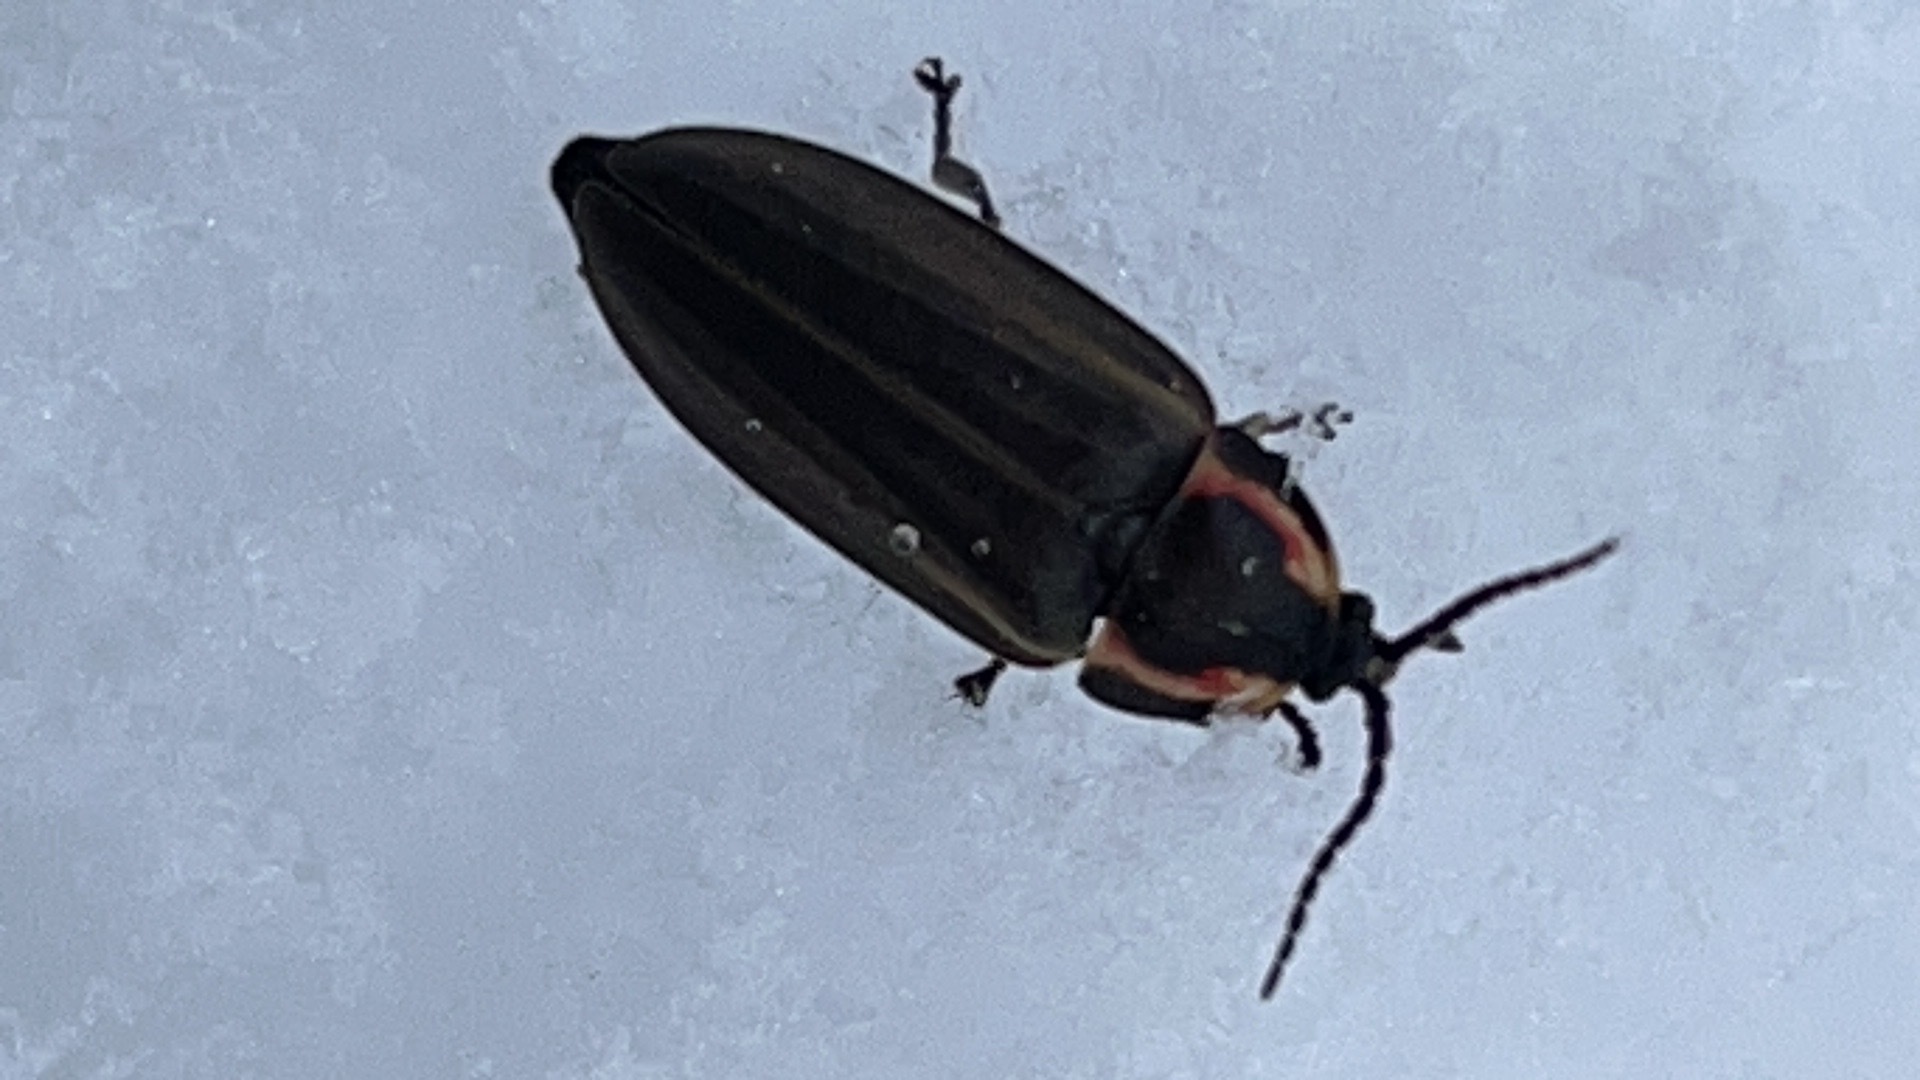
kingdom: Animalia
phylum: Arthropoda
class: Insecta
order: Coleoptera
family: Lampyridae
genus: Photinus
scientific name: Photinus corrusca
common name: Winter firefly
